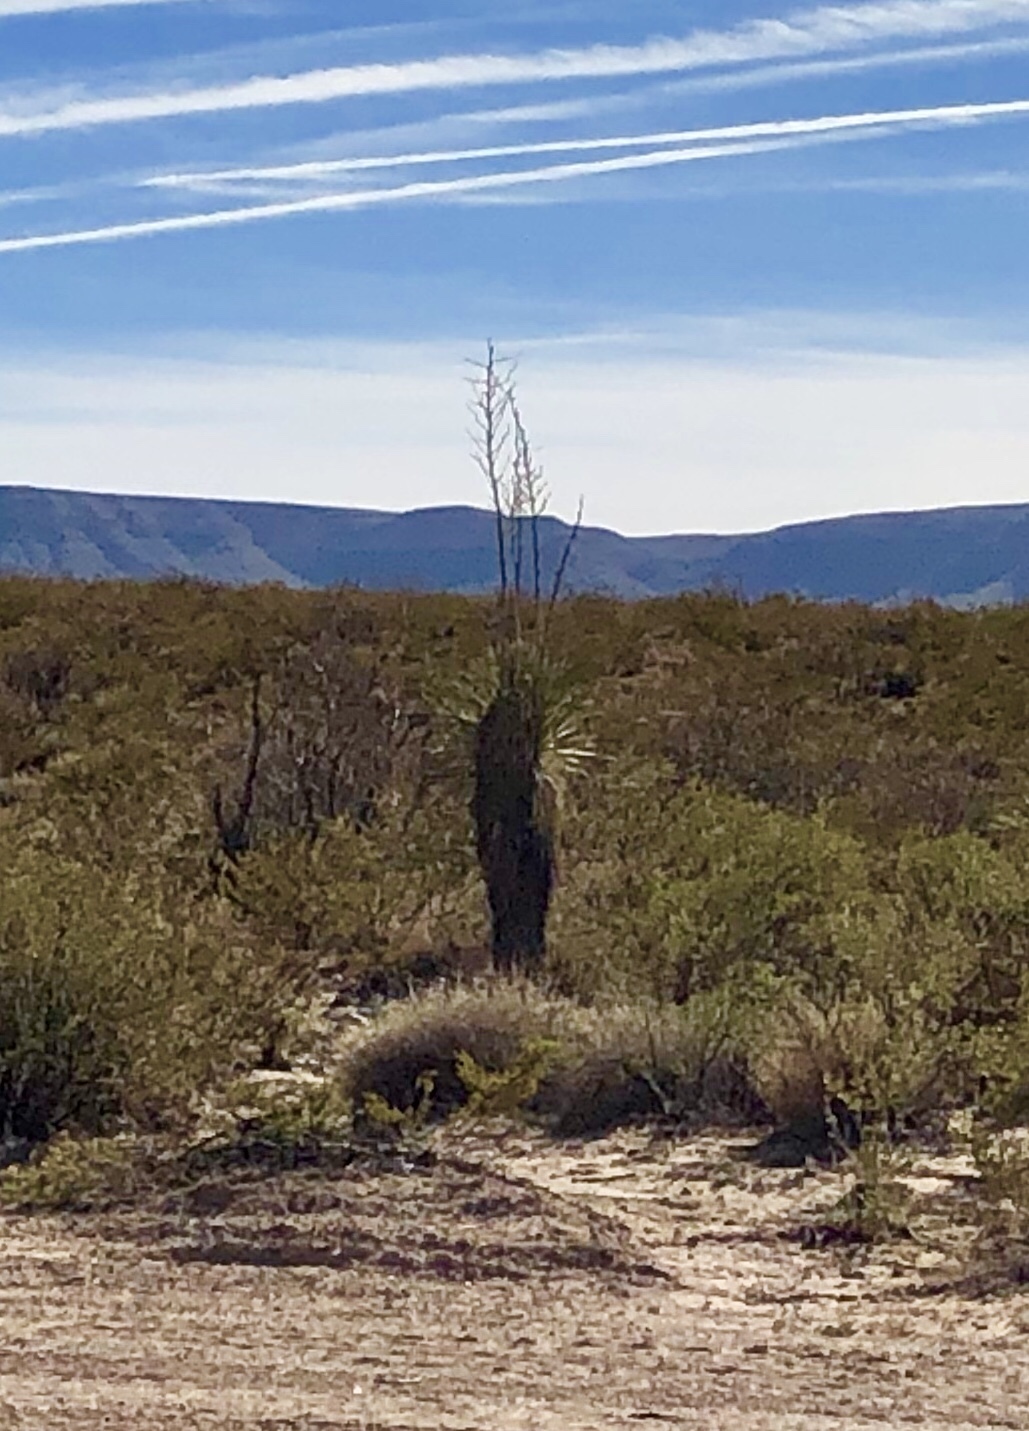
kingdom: Plantae
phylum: Tracheophyta
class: Liliopsida
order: Asparagales
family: Asparagaceae
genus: Yucca
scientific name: Yucca elata
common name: Palmella
